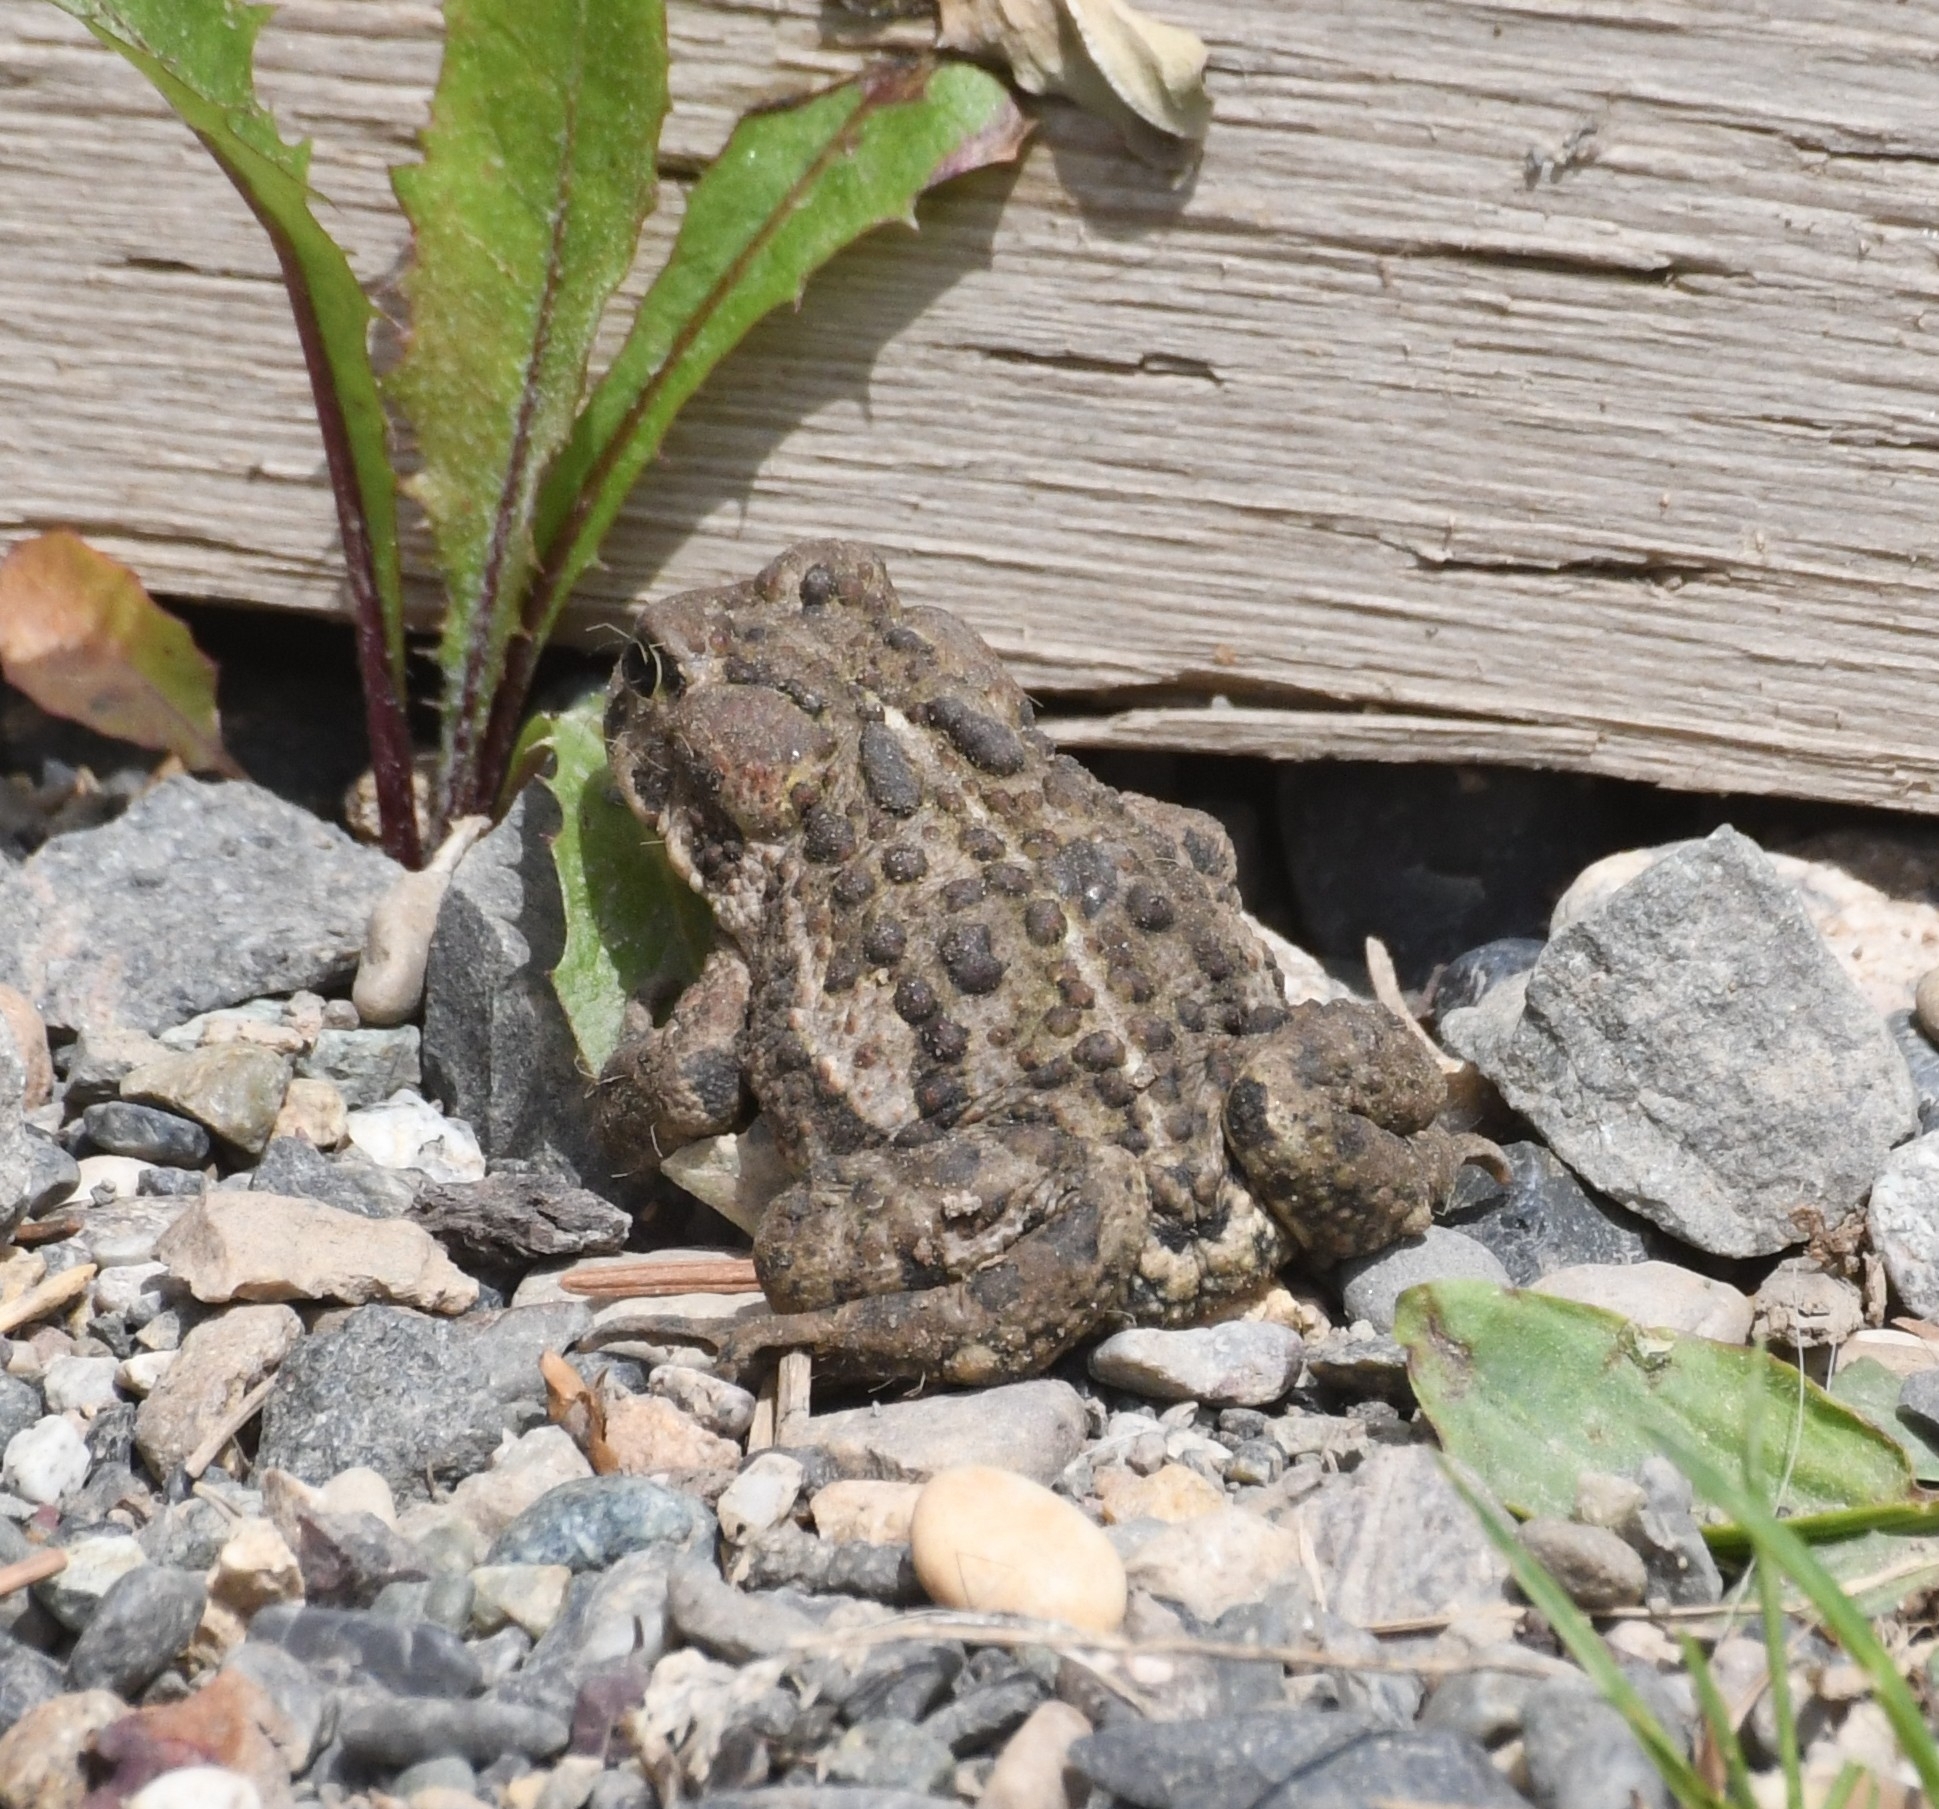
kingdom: Animalia
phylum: Chordata
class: Amphibia
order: Anura
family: Bufonidae
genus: Anaxyrus
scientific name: Anaxyrus boreas
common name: Western toad
